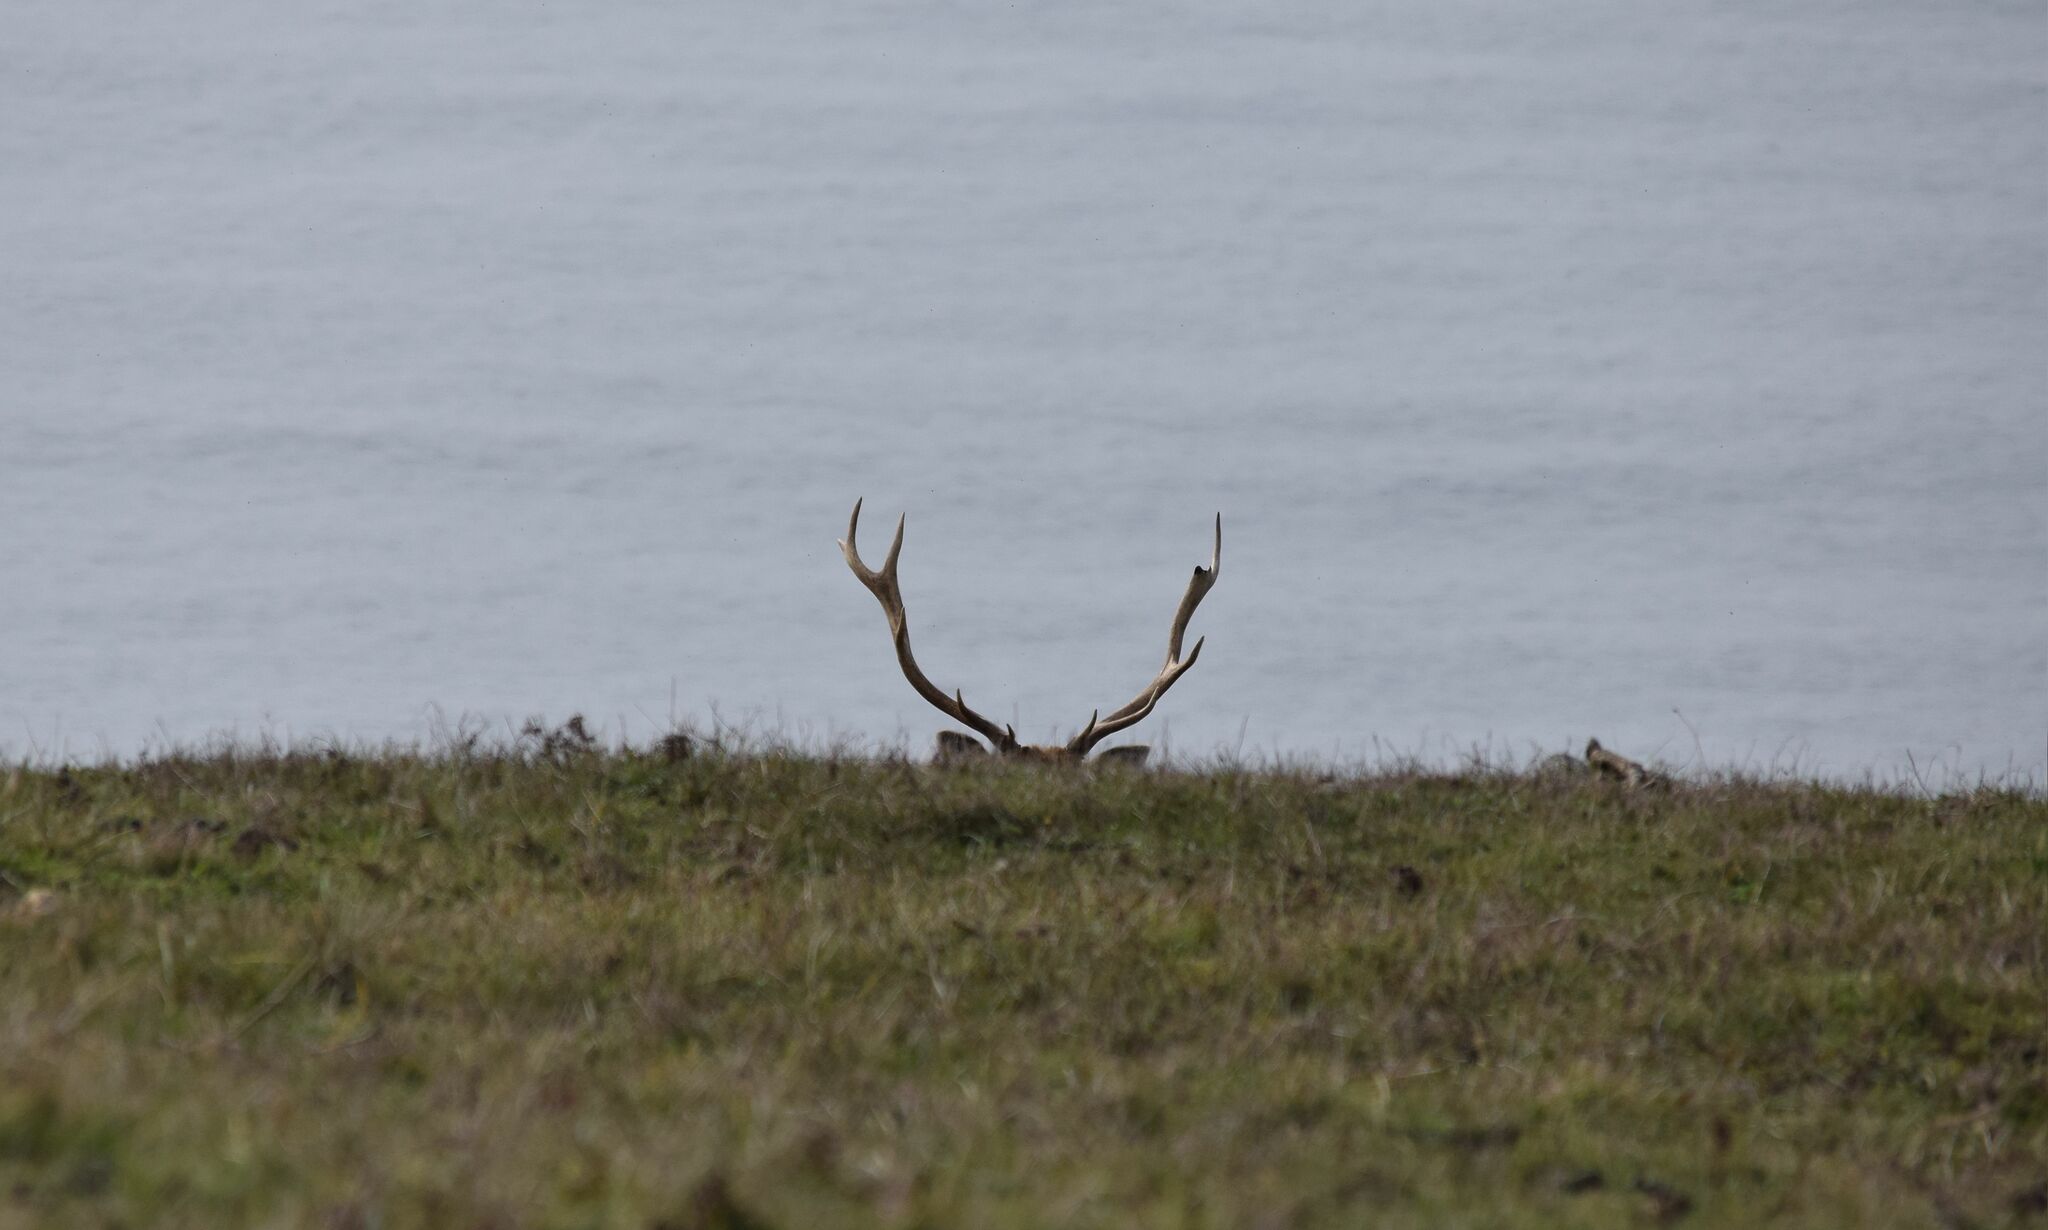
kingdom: Animalia
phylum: Chordata
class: Mammalia
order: Artiodactyla
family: Cervidae
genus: Cervus
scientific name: Cervus elaphus
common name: Red deer
